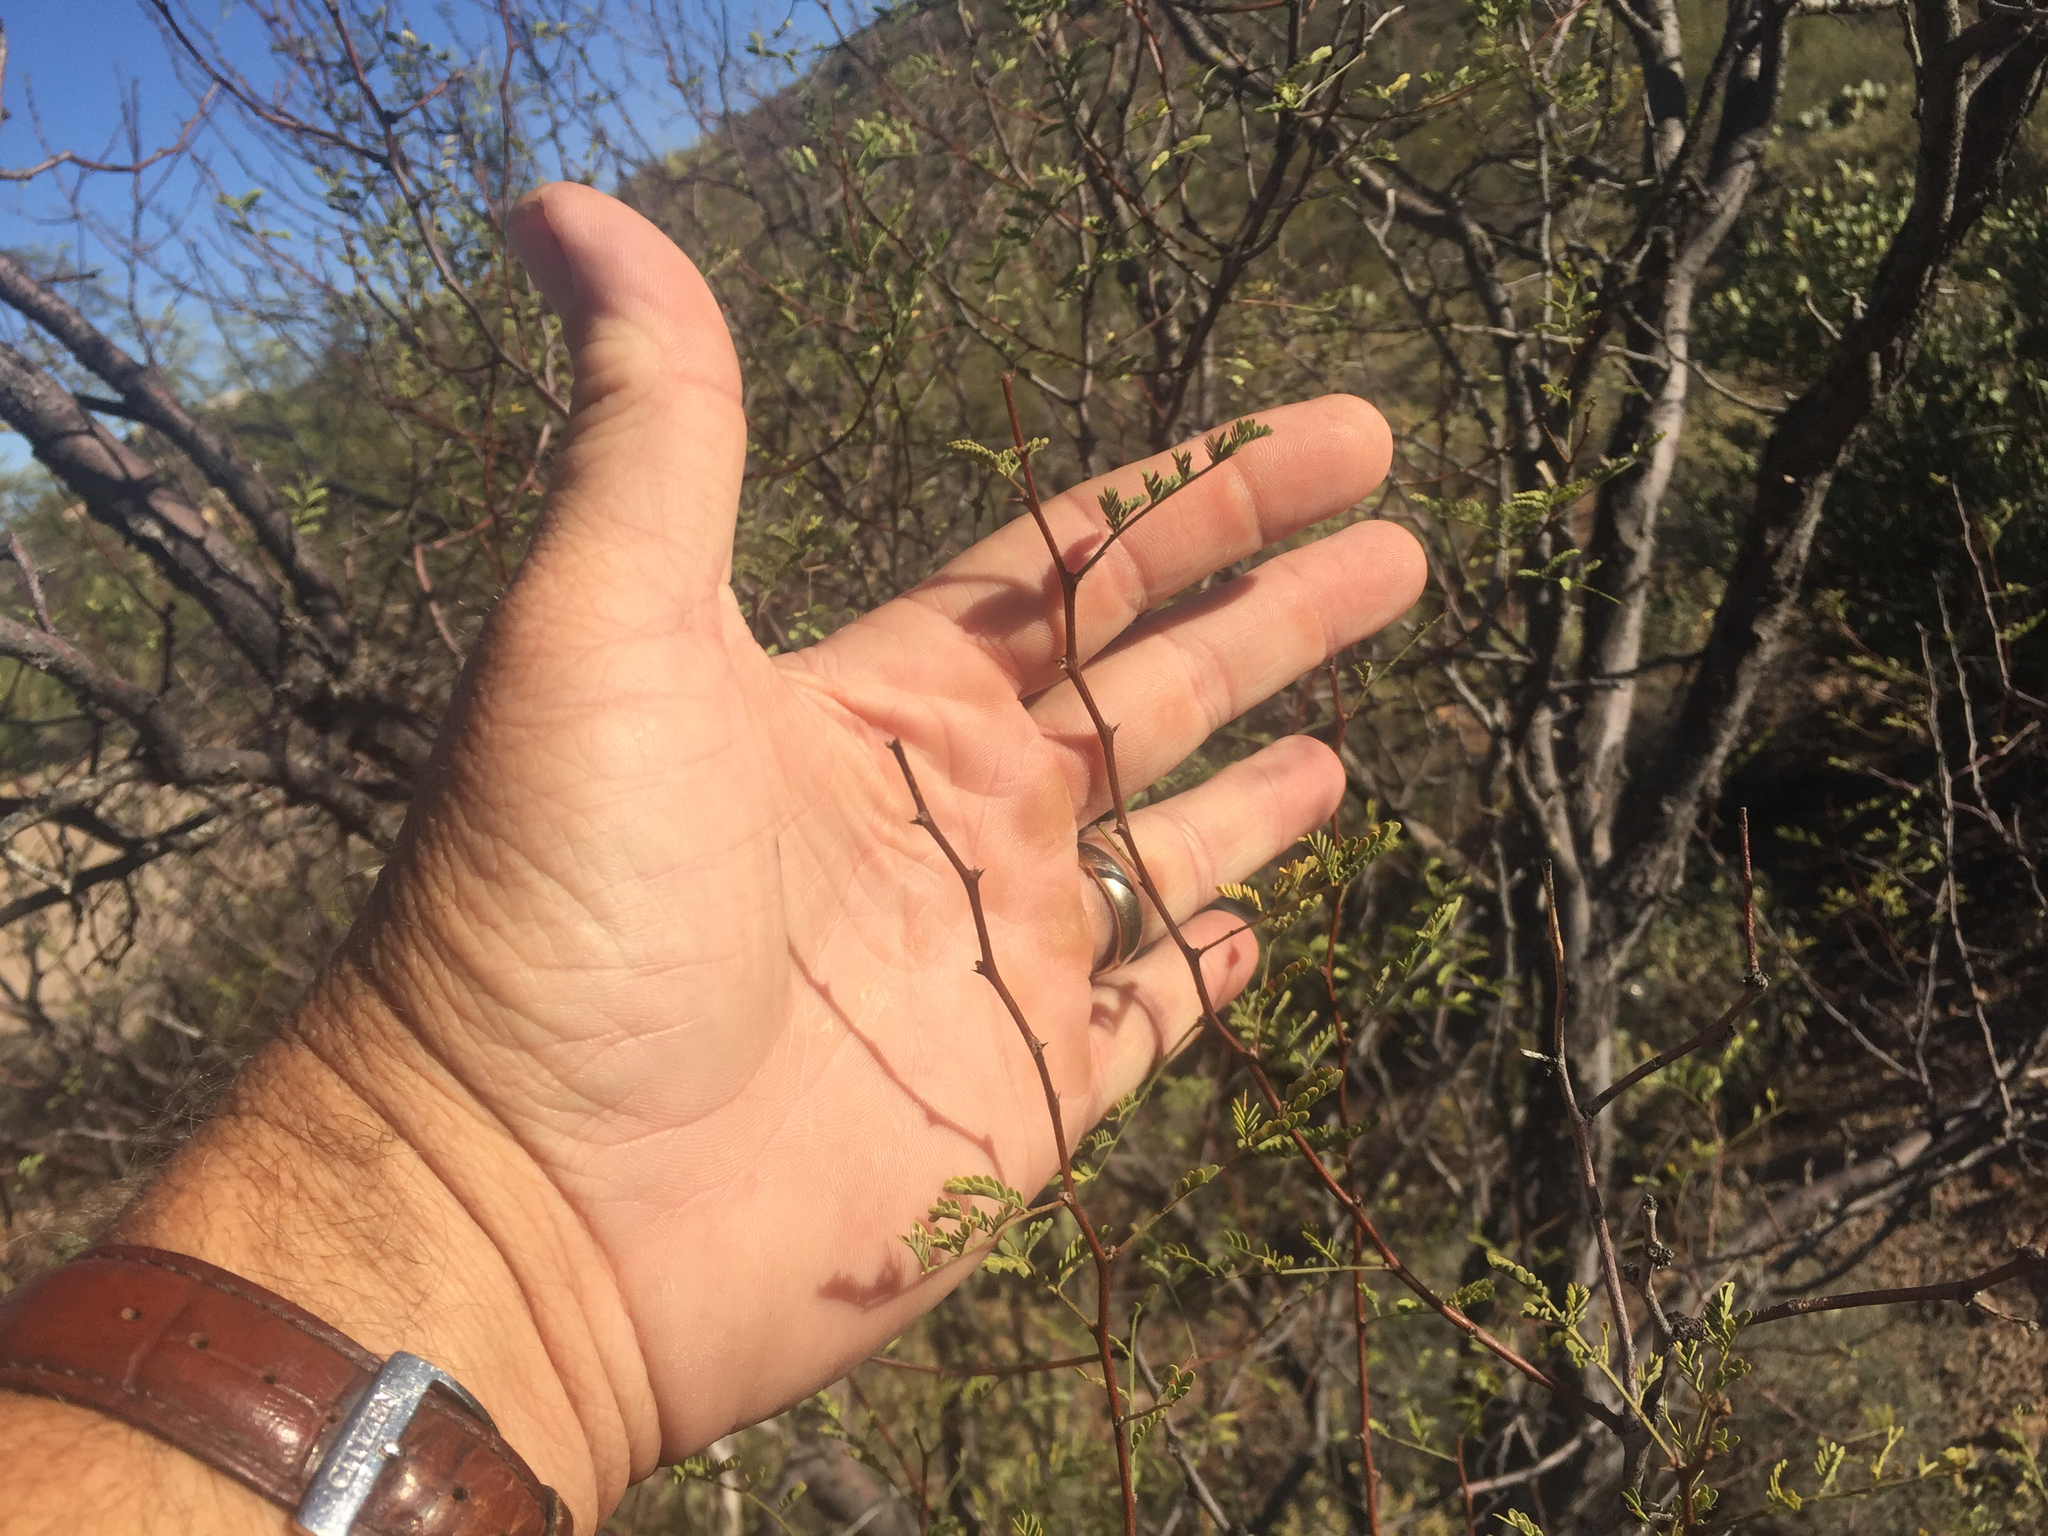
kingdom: Plantae
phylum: Tracheophyta
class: Magnoliopsida
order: Fabales
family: Fabaceae
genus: Vachellia
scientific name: Vachellia constricta
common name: Mescat acacia
